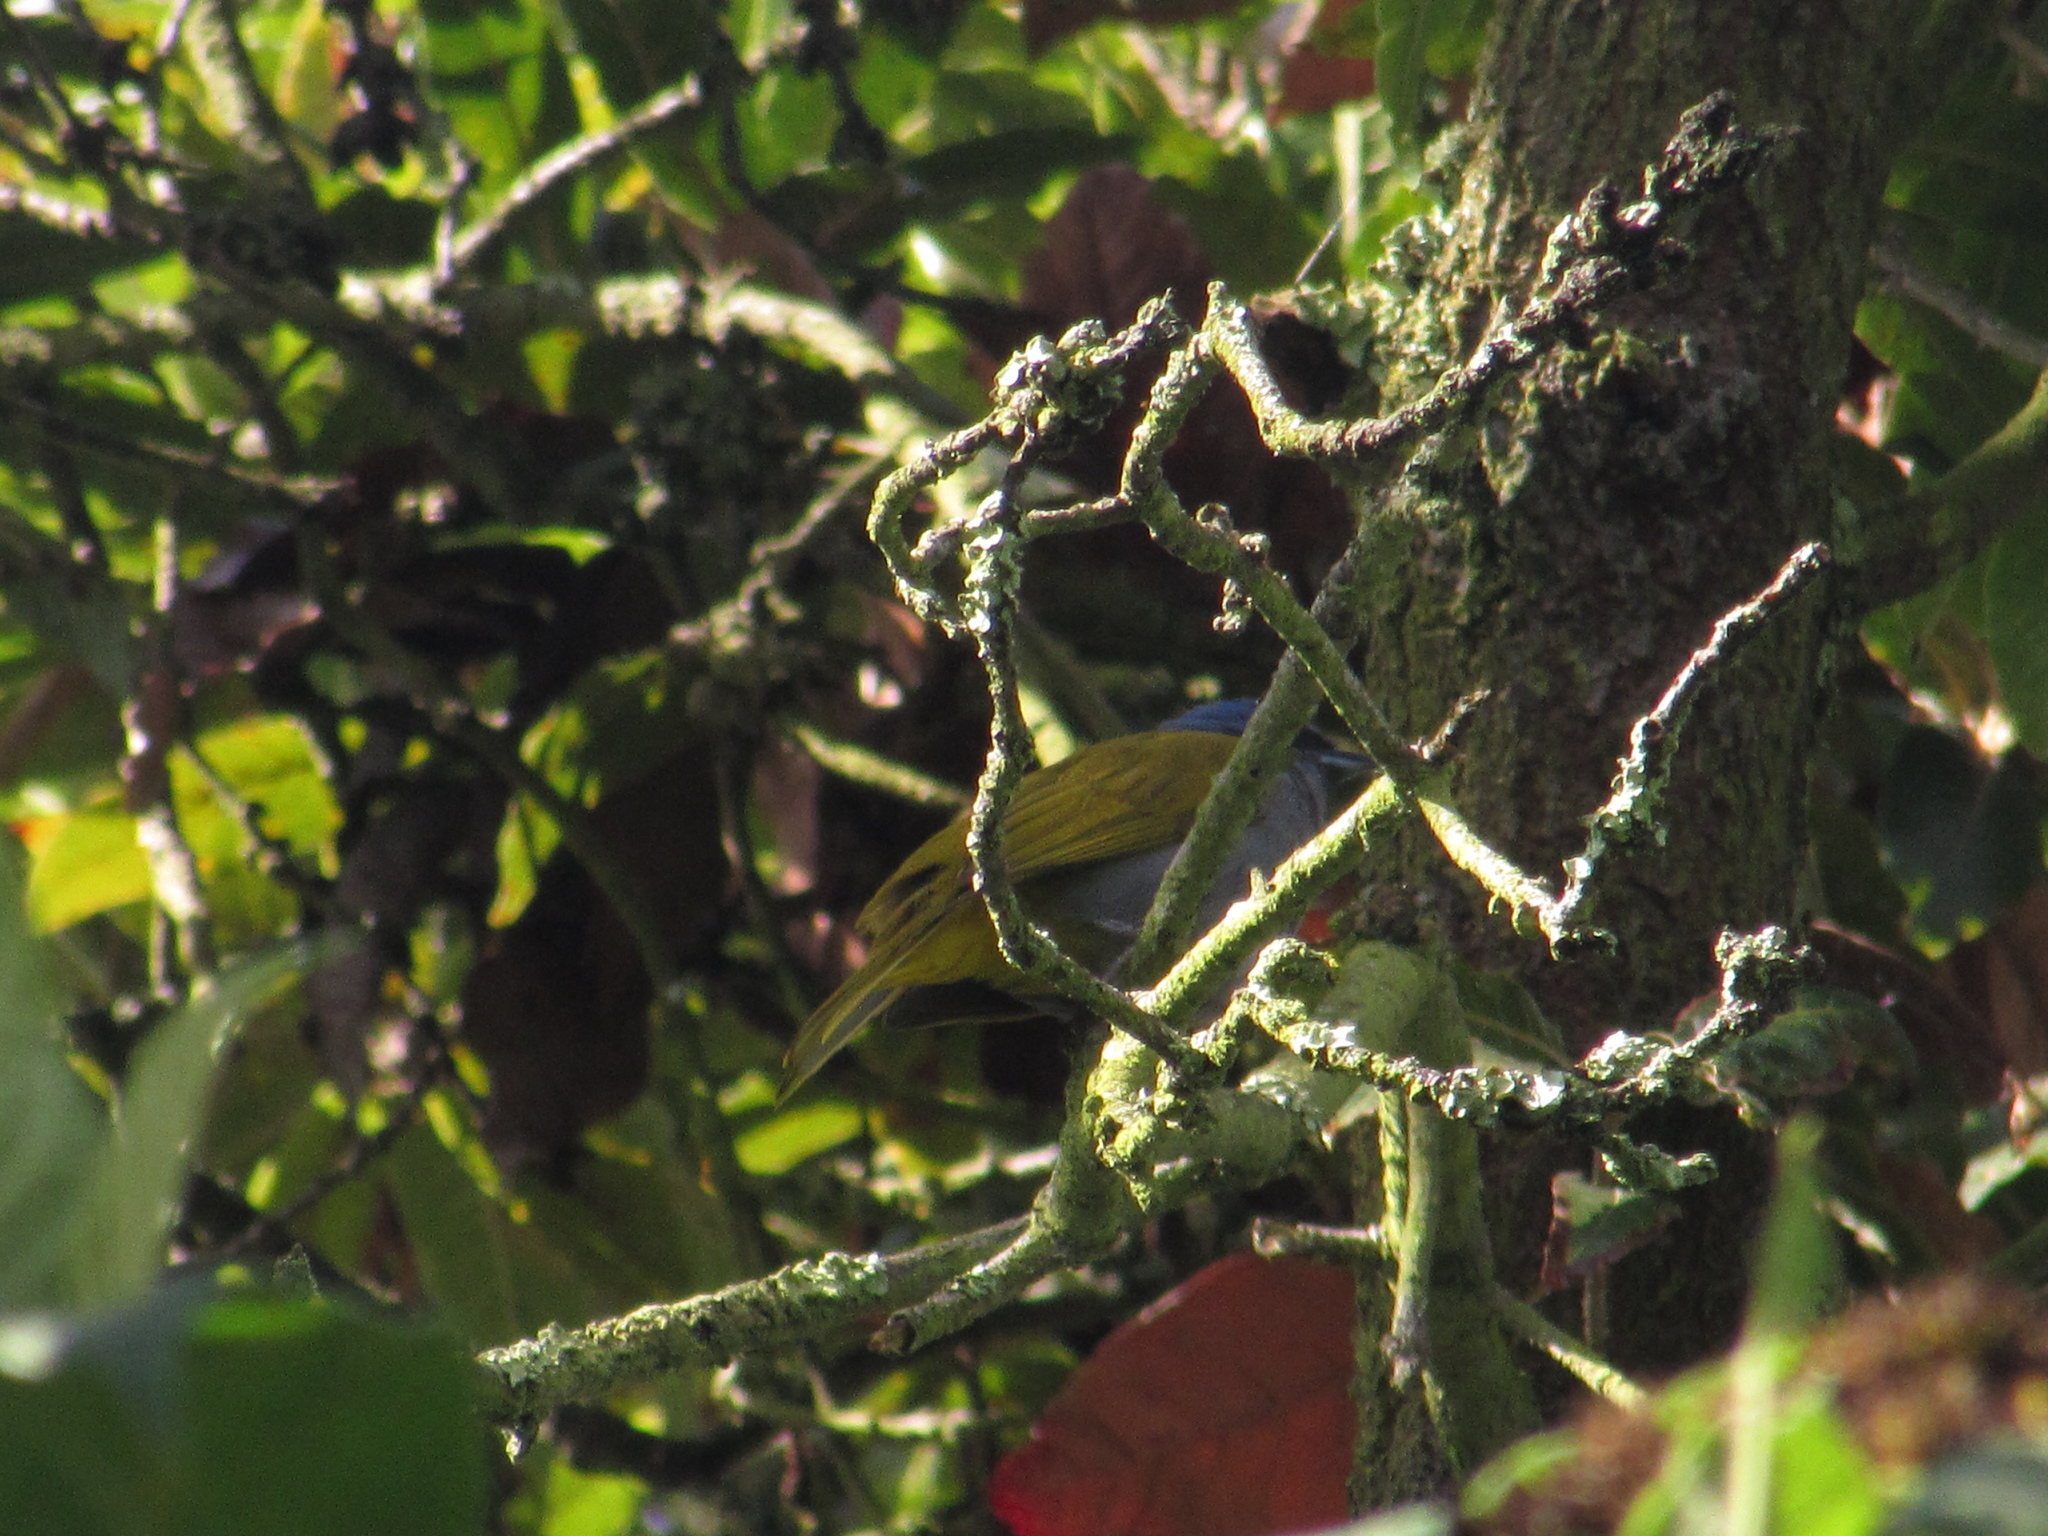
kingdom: Animalia
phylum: Chordata
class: Aves
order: Passeriformes
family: Thraupidae
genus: Sporathraupis
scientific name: Sporathraupis cyanocephala
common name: Blue-capped tanager
